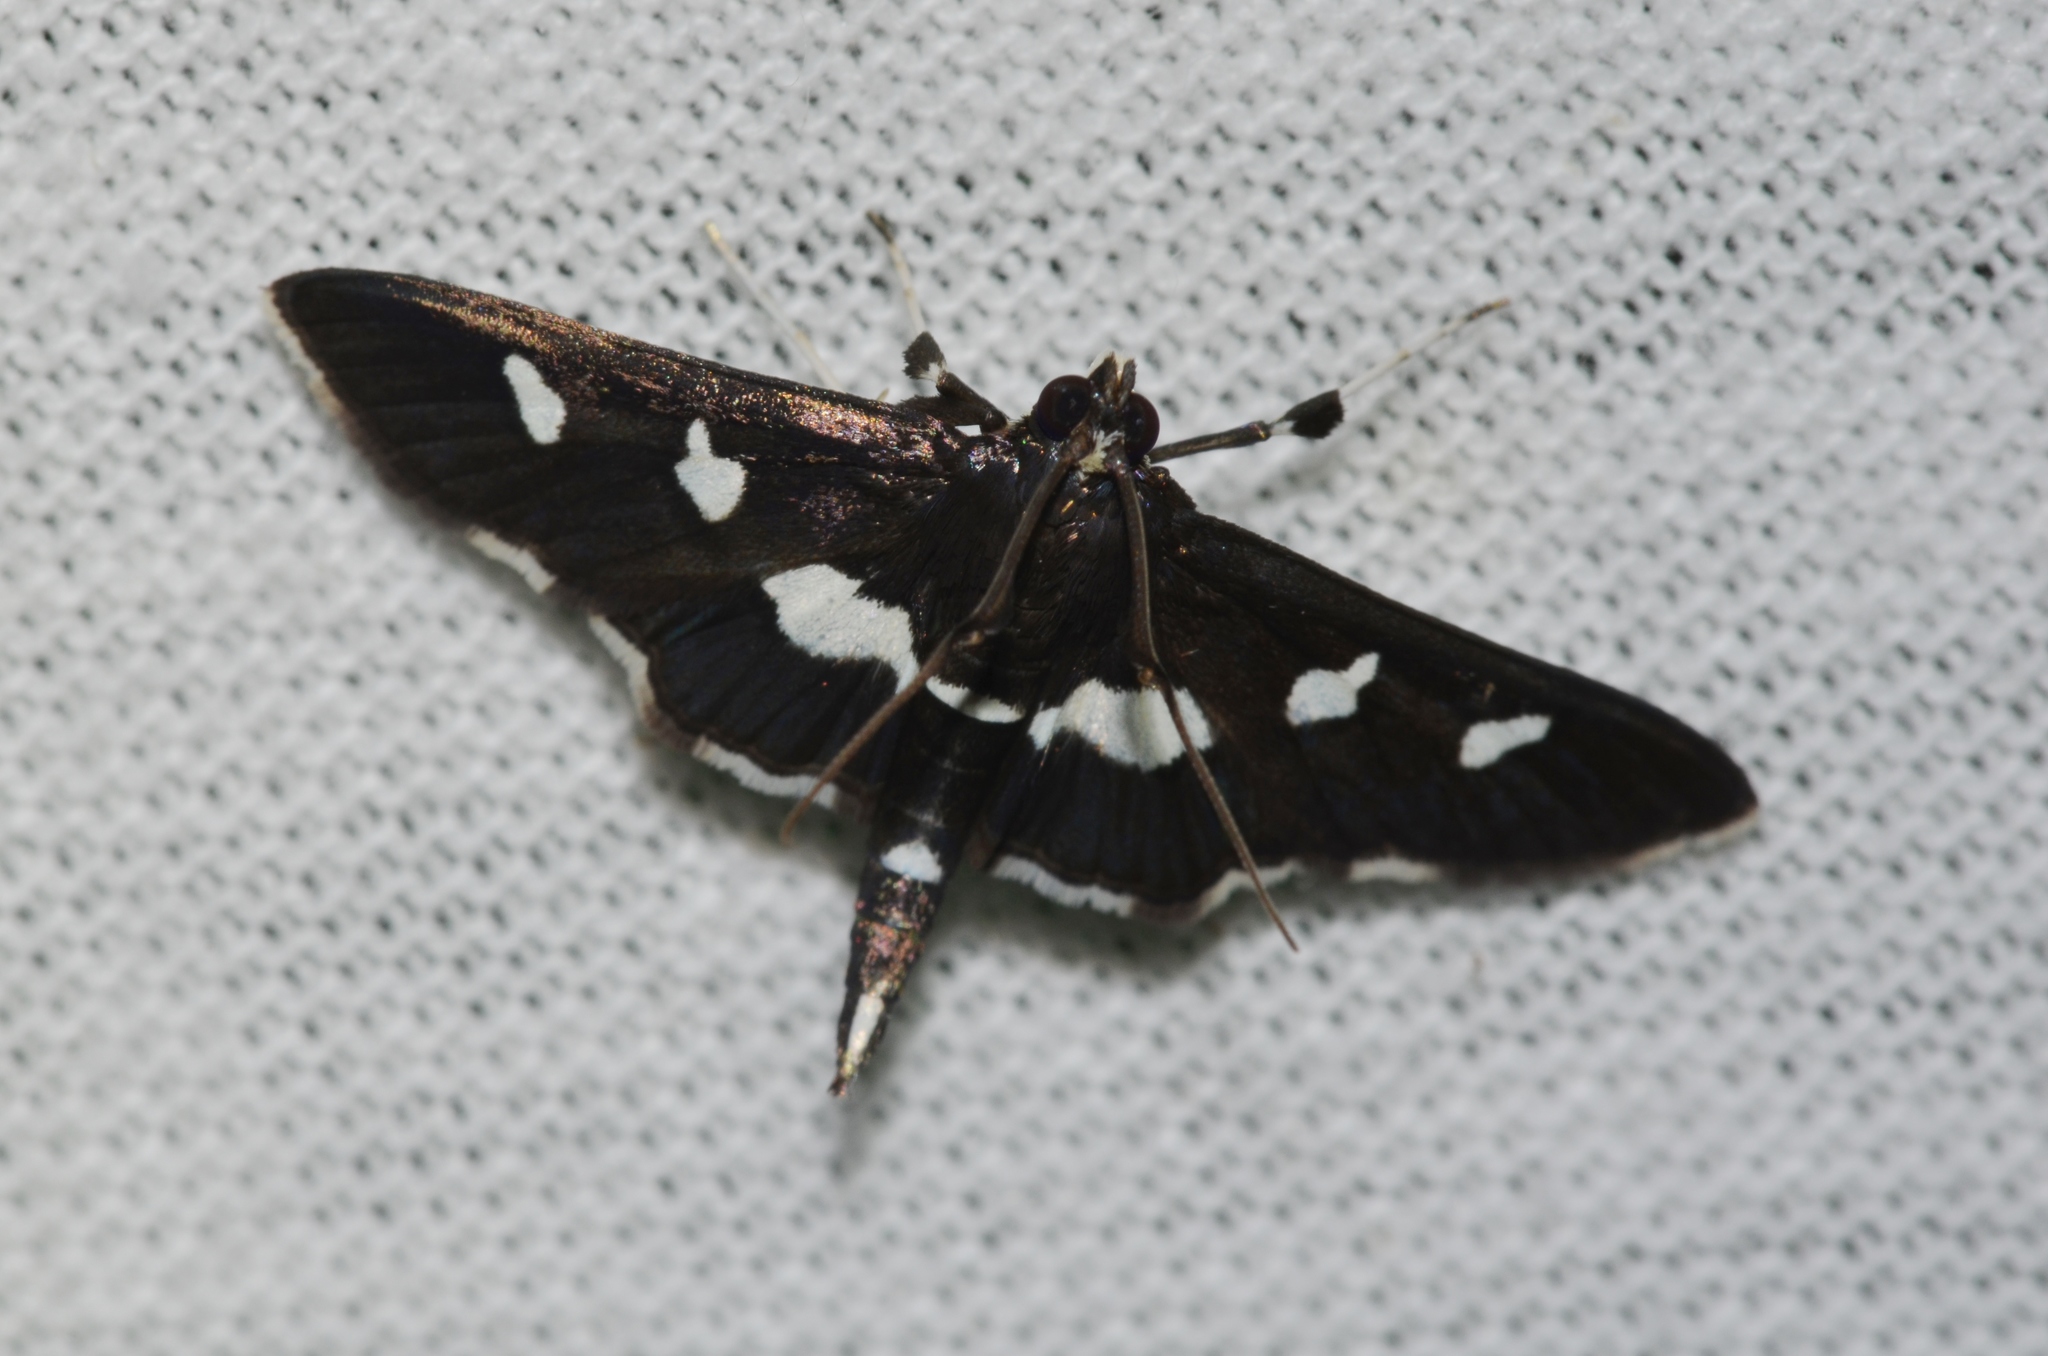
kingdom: Animalia
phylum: Arthropoda
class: Insecta
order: Lepidoptera
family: Crambidae
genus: Desmia
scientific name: Desmia funeralis
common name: Grape leaf folder moth
